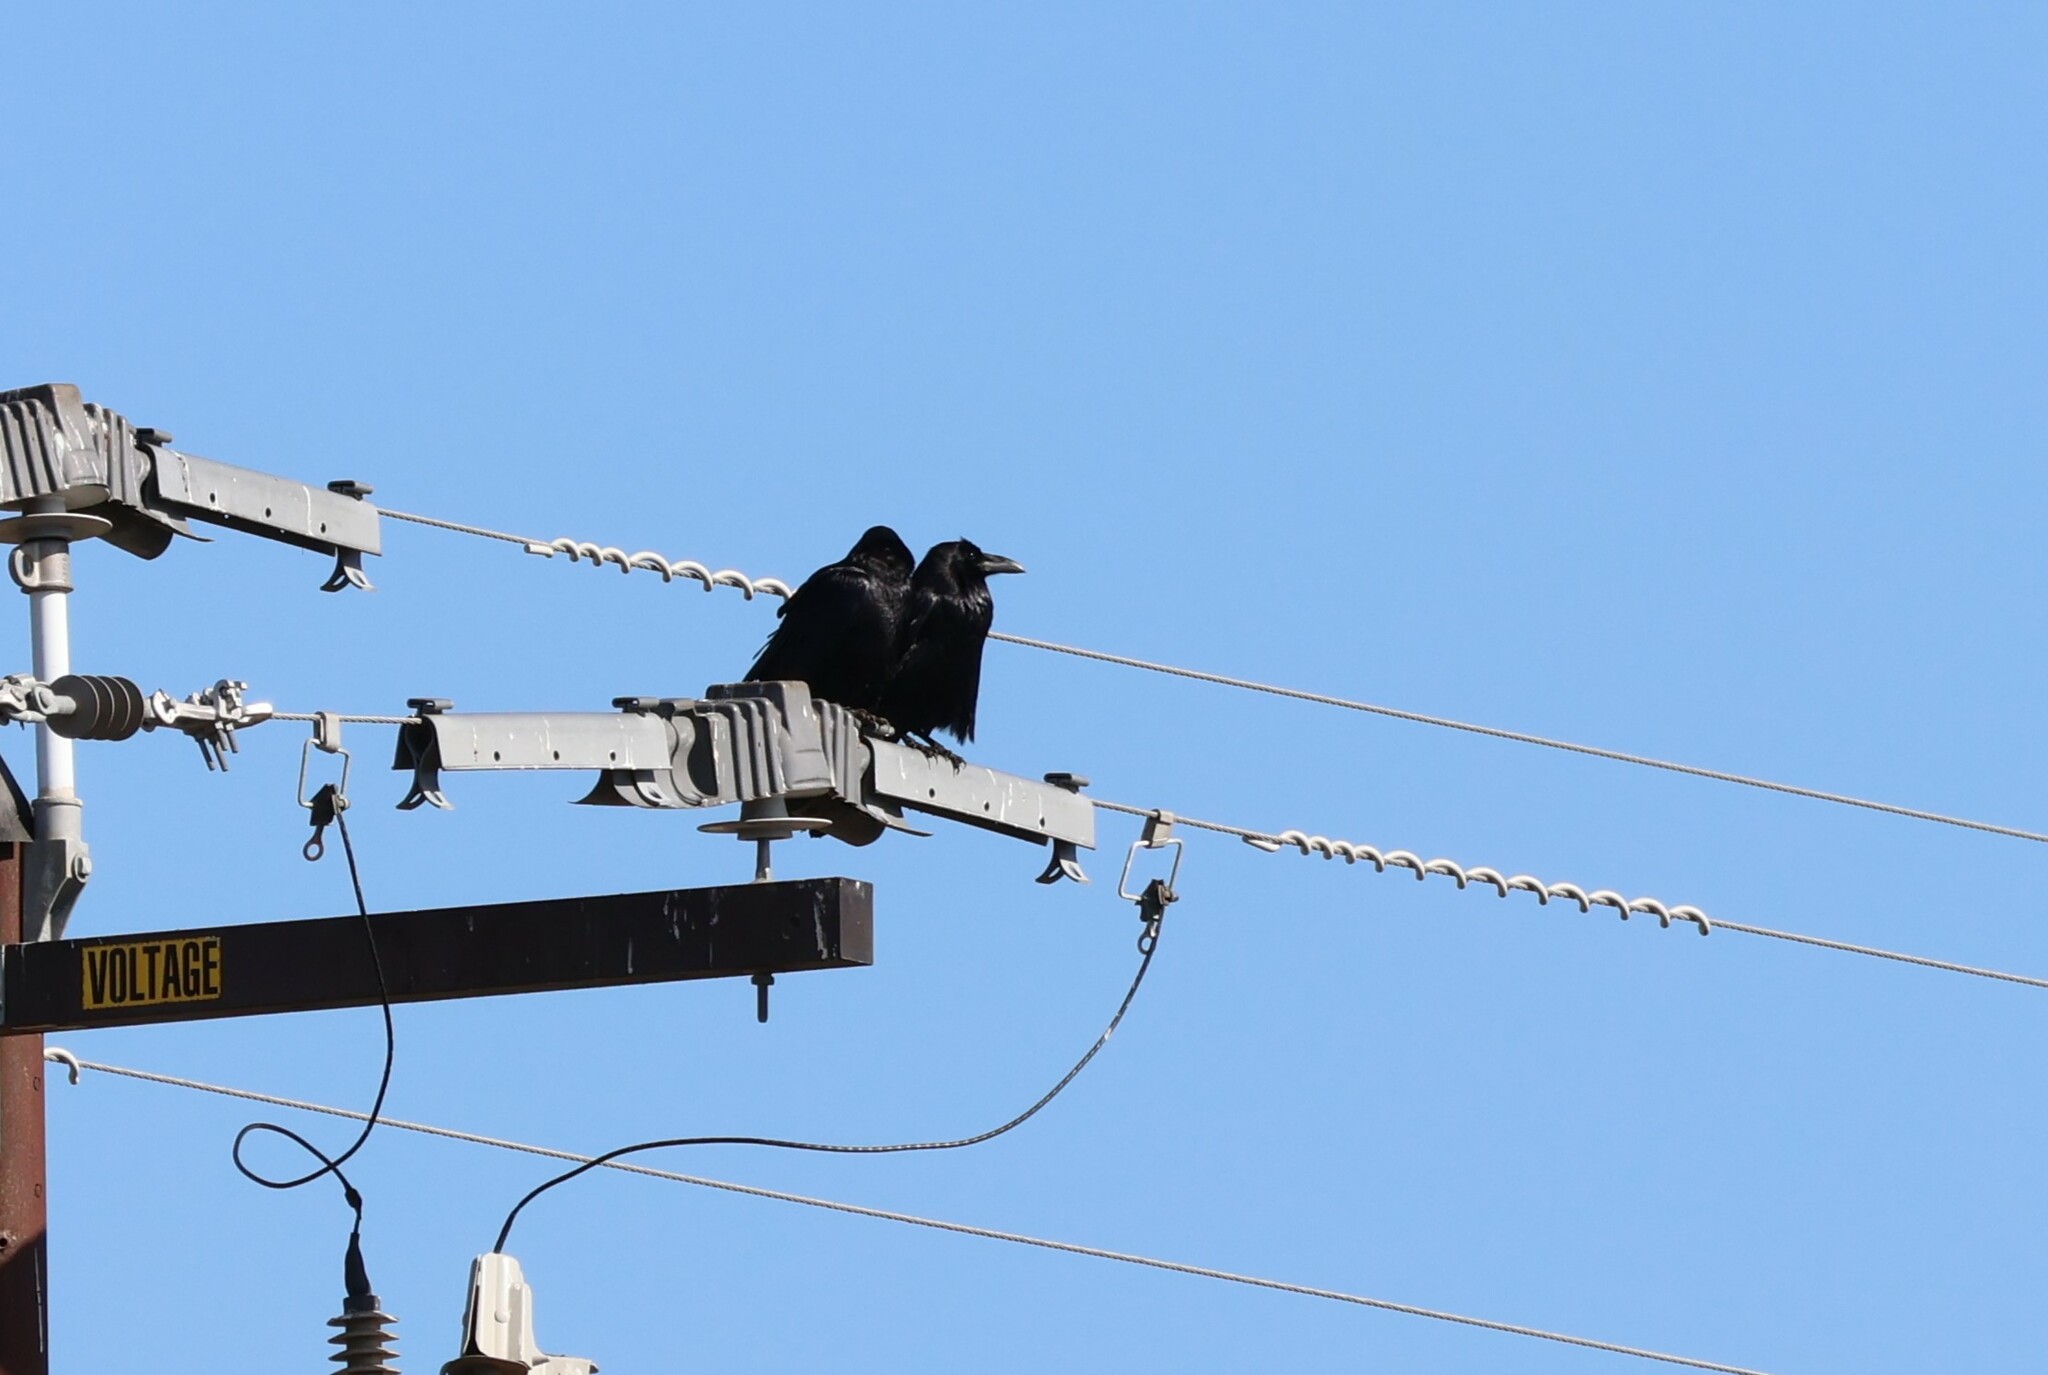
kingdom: Animalia
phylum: Chordata
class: Aves
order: Passeriformes
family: Corvidae
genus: Corvus
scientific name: Corvus corax
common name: Common raven
